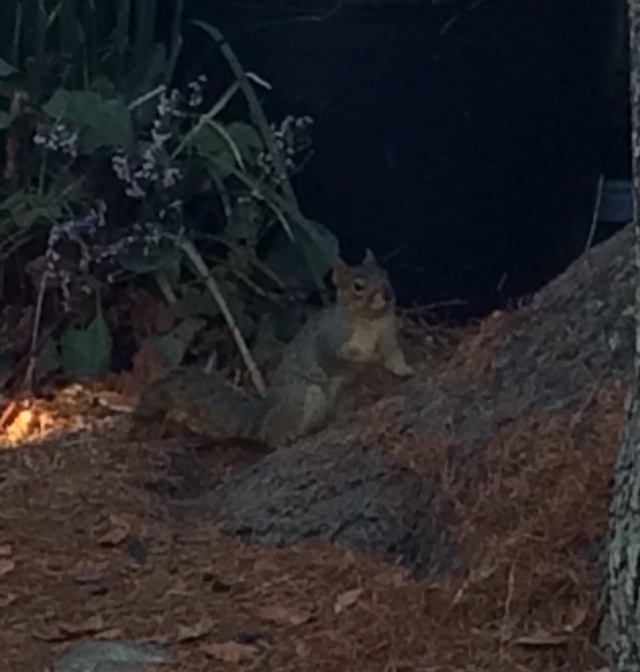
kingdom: Animalia
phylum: Chordata
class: Mammalia
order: Rodentia
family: Sciuridae
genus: Sciurus
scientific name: Sciurus niger
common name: Fox squirrel
